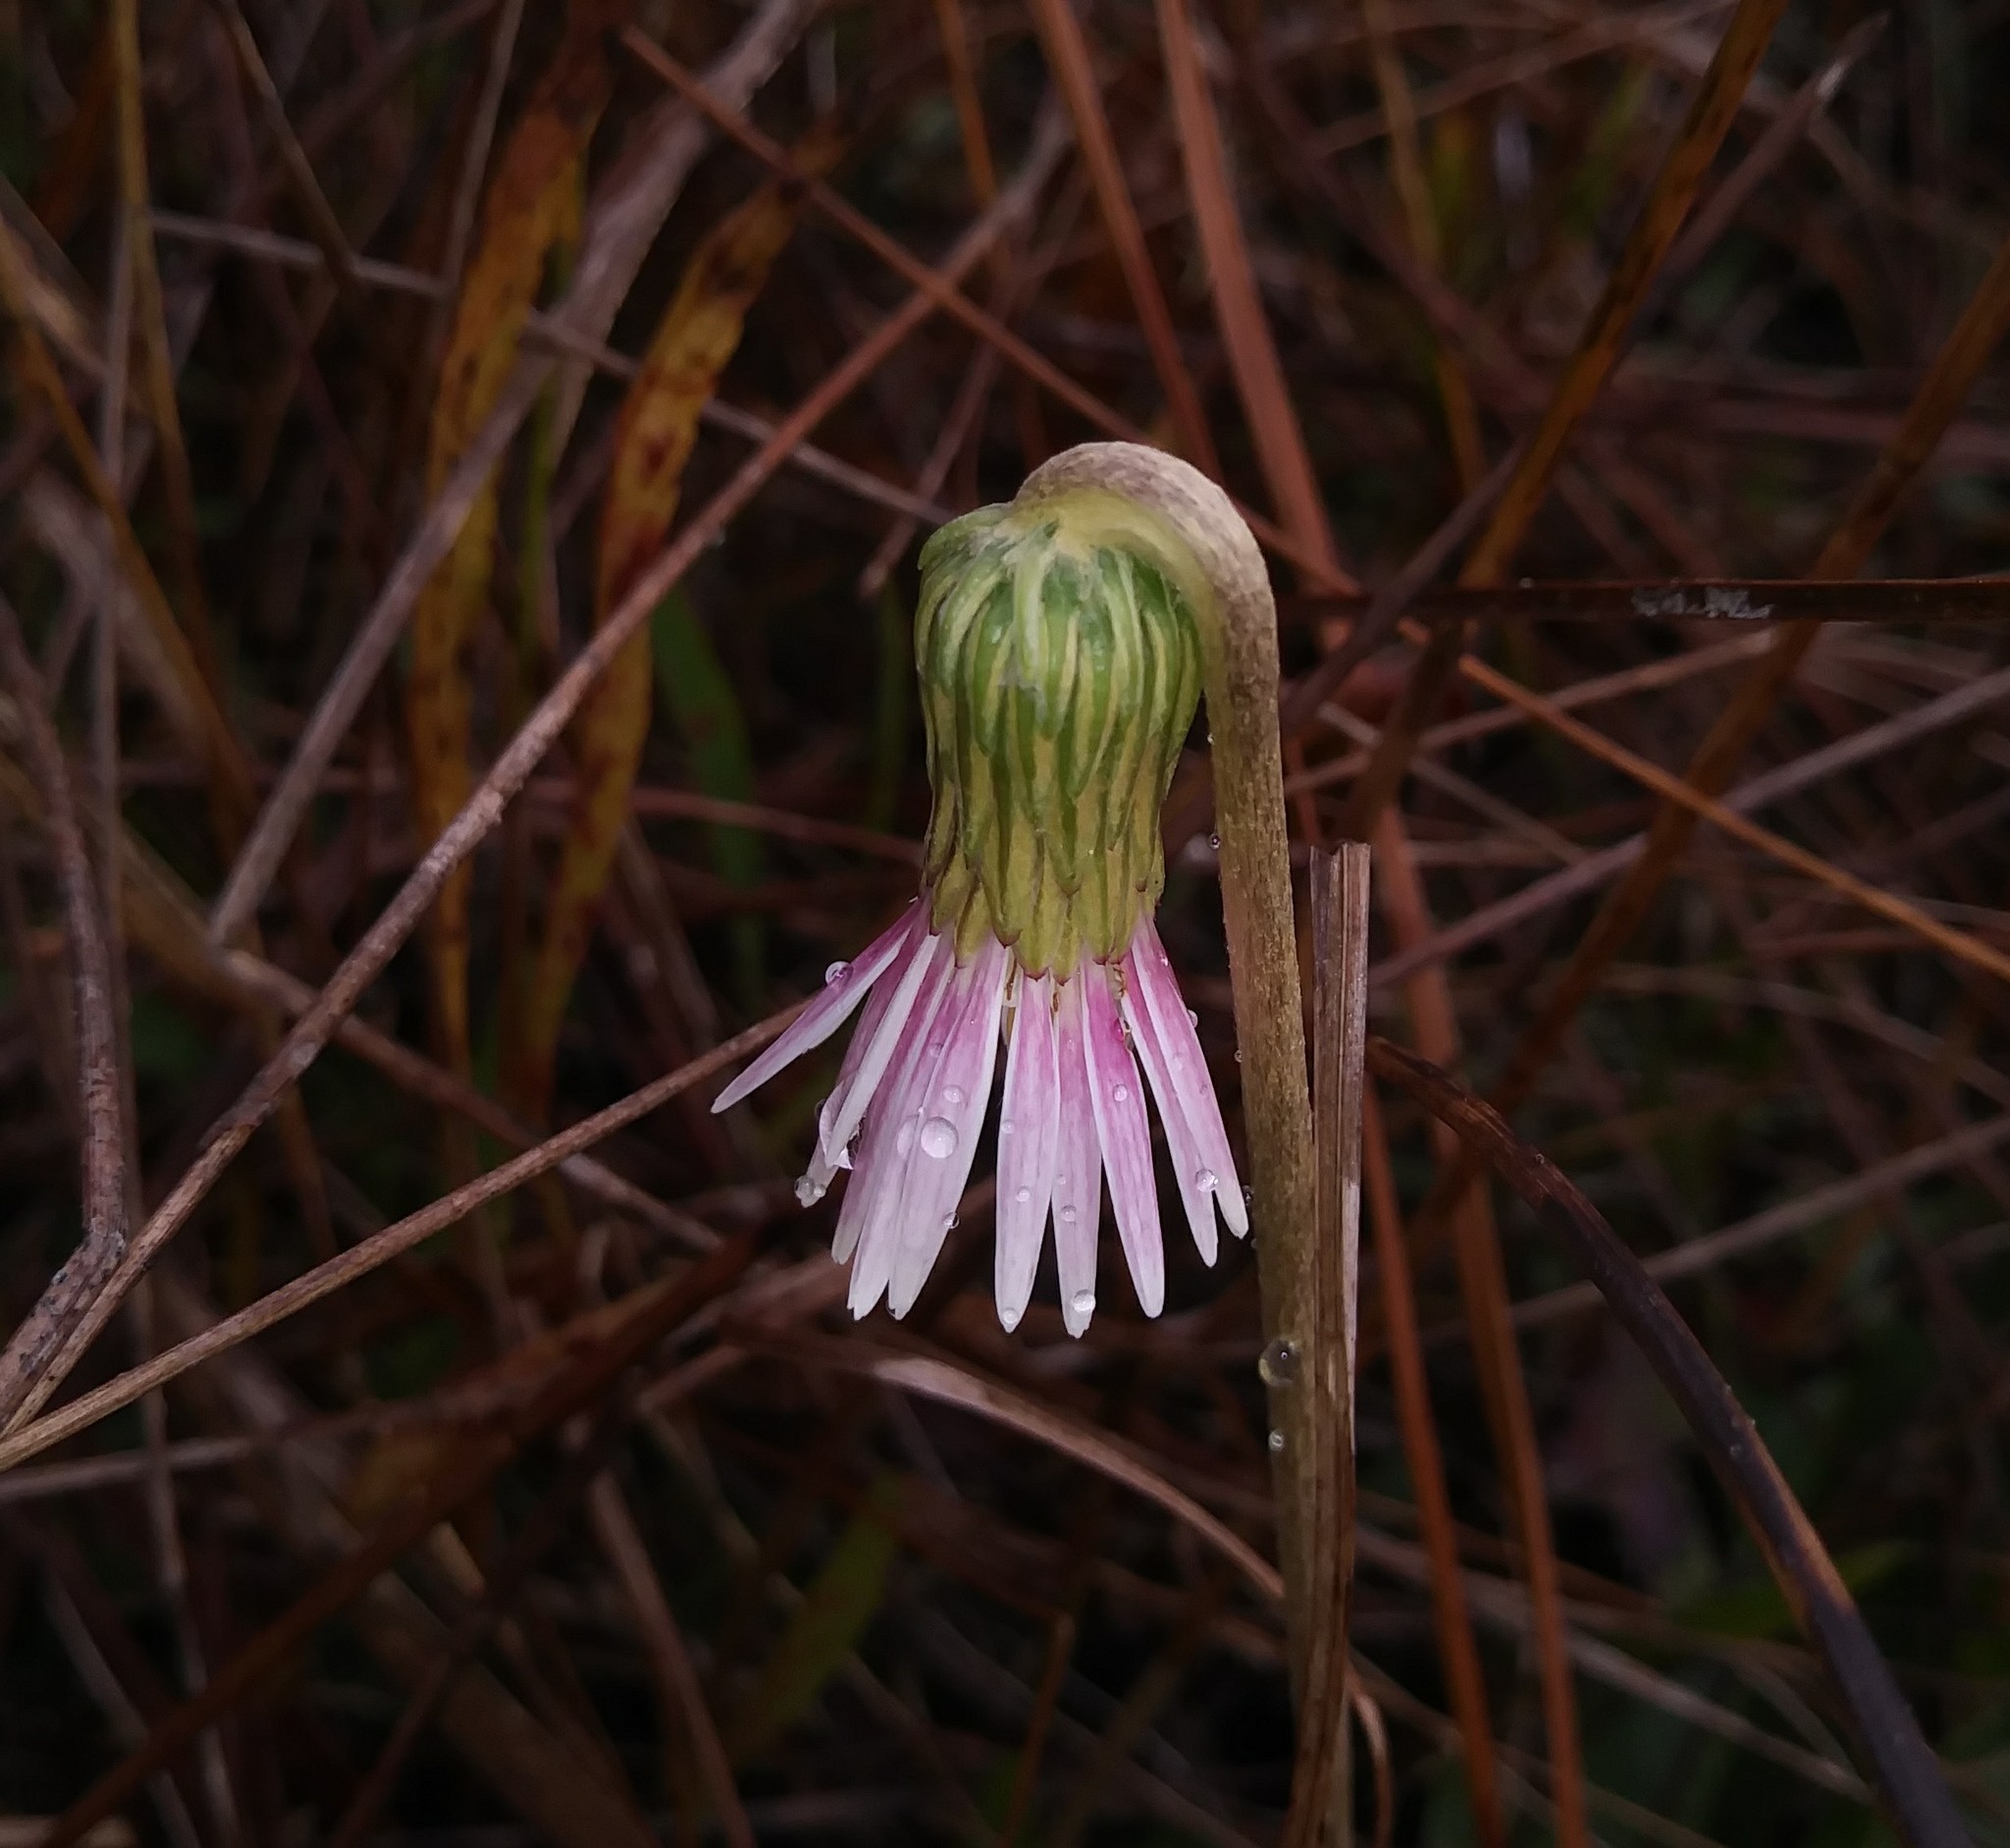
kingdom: Plantae
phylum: Tracheophyta
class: Magnoliopsida
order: Asterales
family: Asteraceae
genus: Chaptalia
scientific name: Chaptalia tomentosa
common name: Woolly sunbonnet
